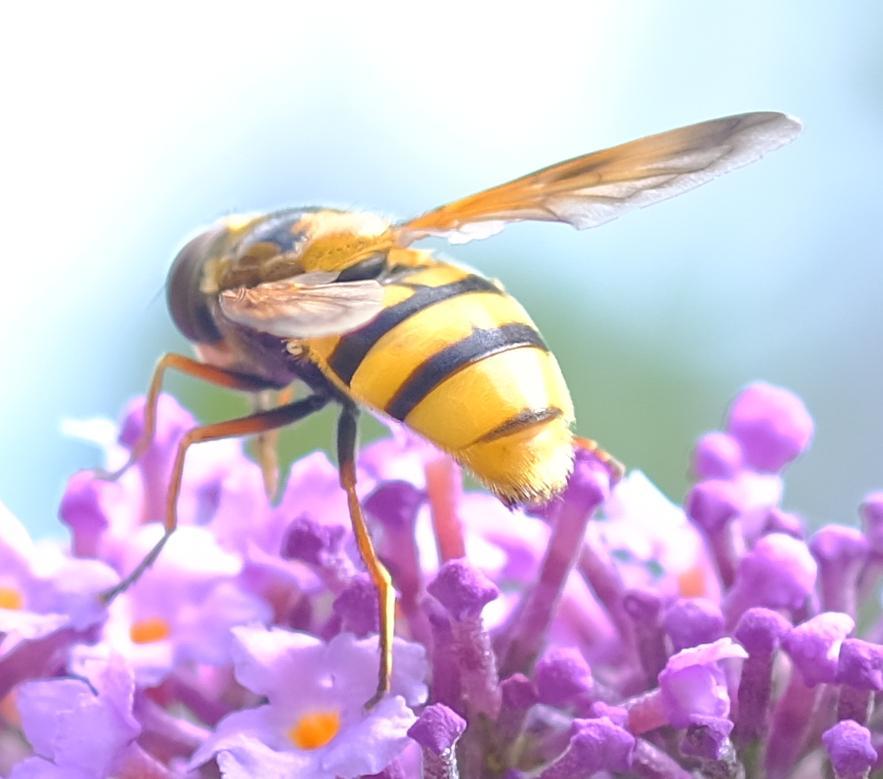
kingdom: Animalia
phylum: Arthropoda
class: Insecta
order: Diptera
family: Syrphidae
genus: Volucella
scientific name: Volucella inanis
